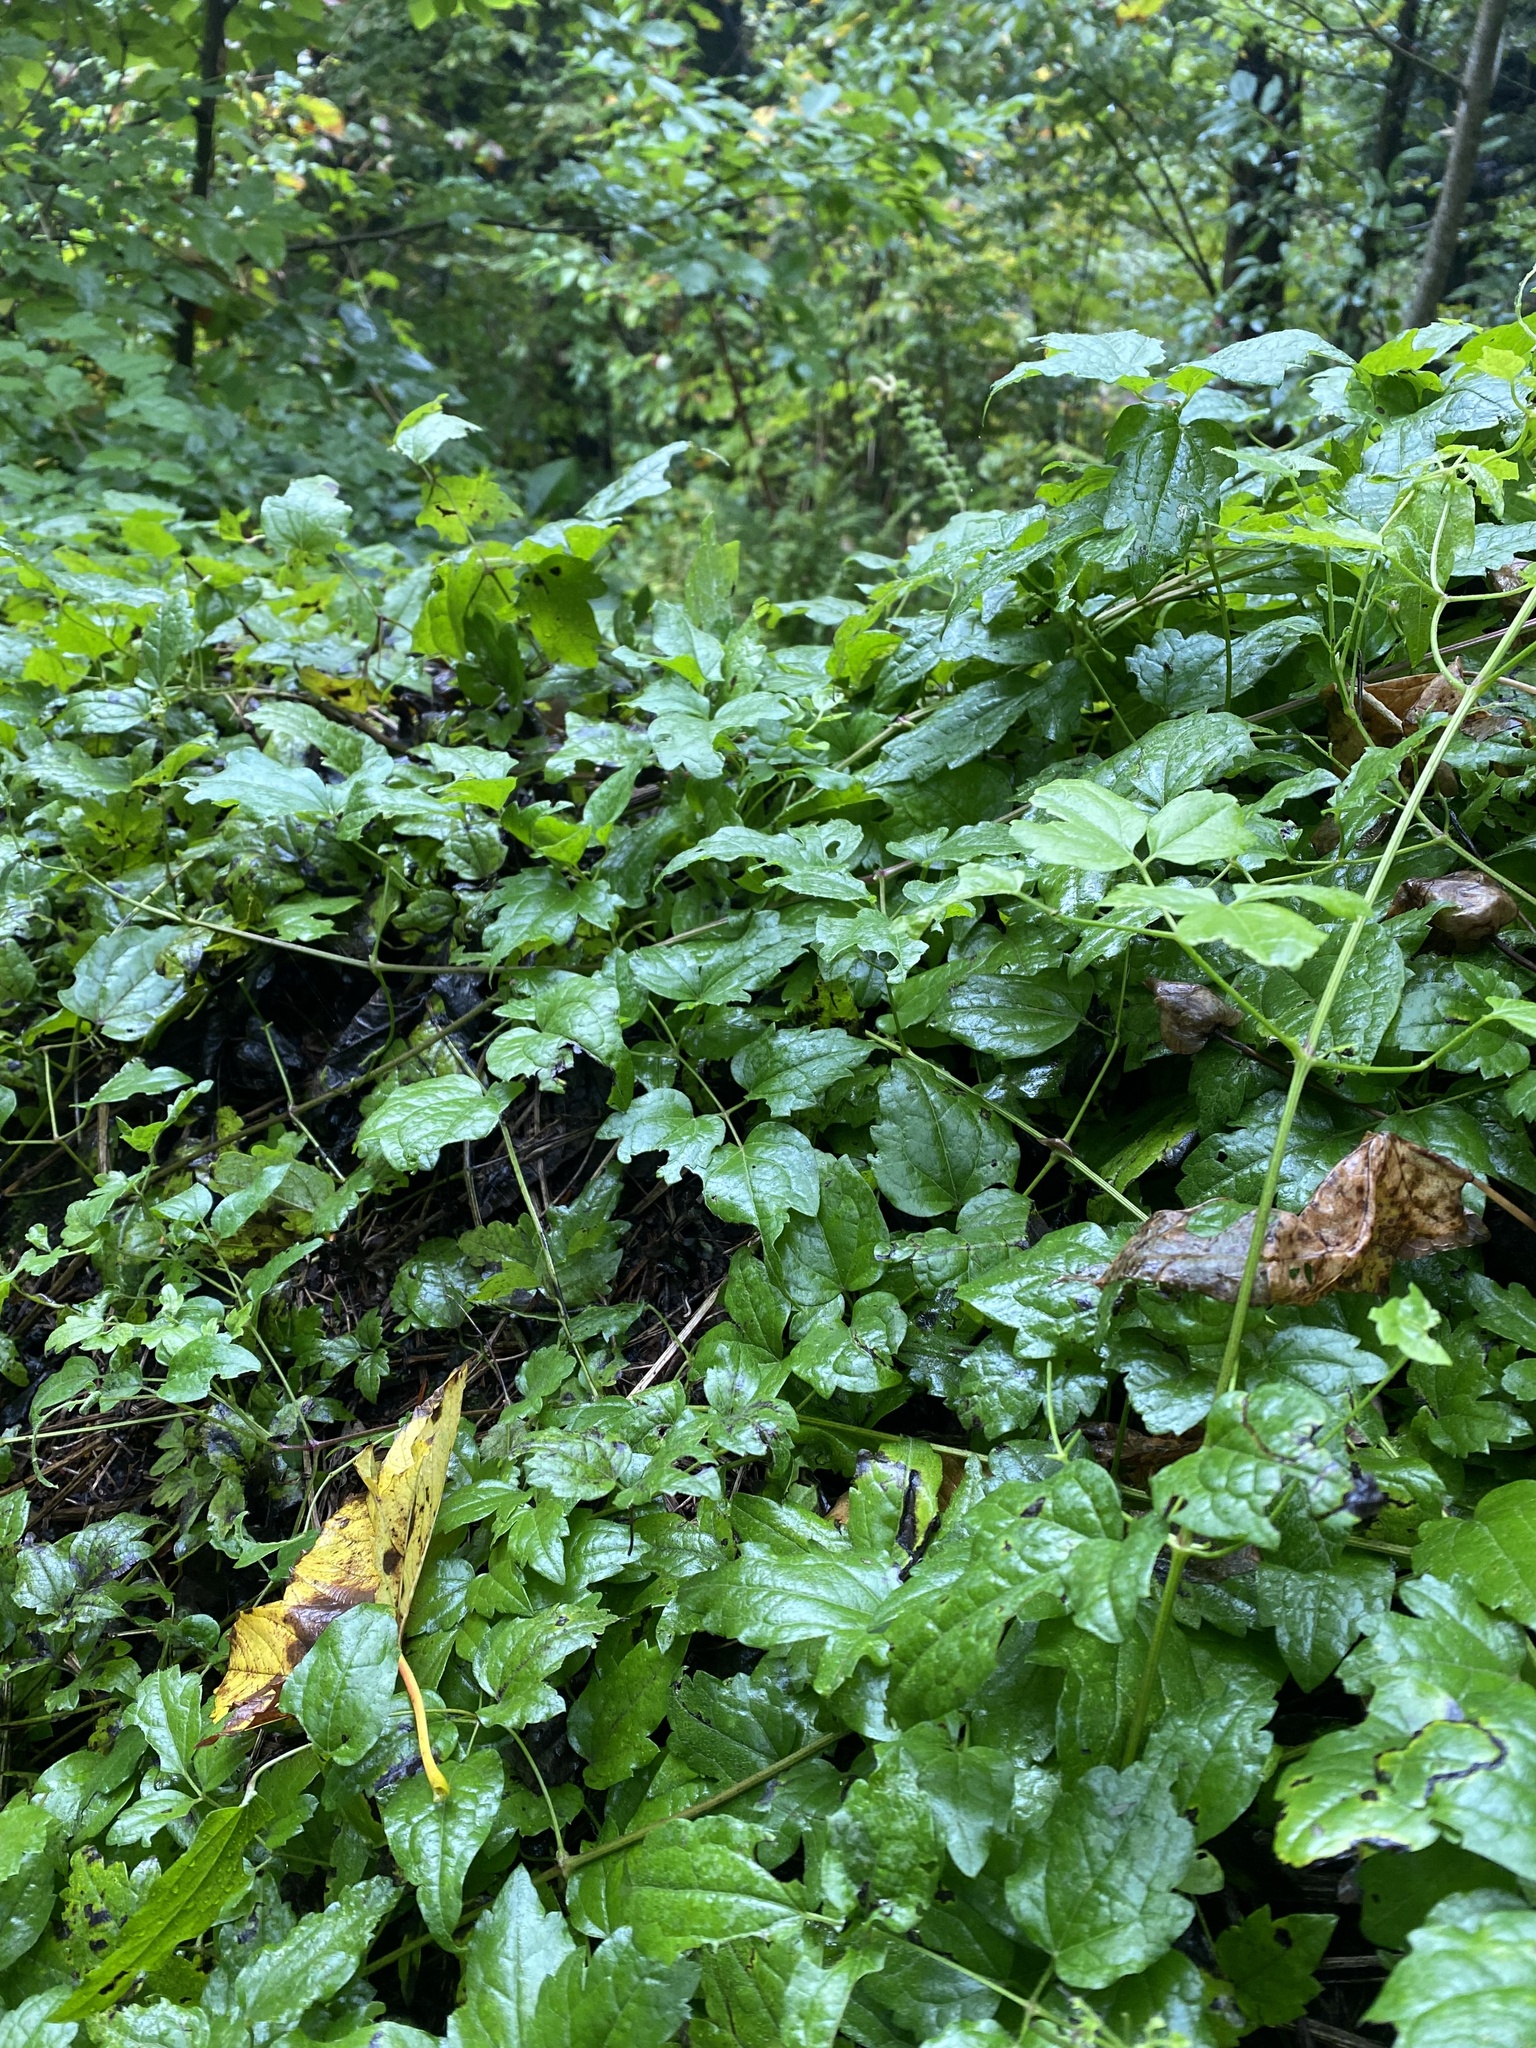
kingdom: Plantae
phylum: Tracheophyta
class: Magnoliopsida
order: Ranunculales
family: Ranunculaceae
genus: Clematis
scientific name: Clematis vitalba
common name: Evergreen clematis
